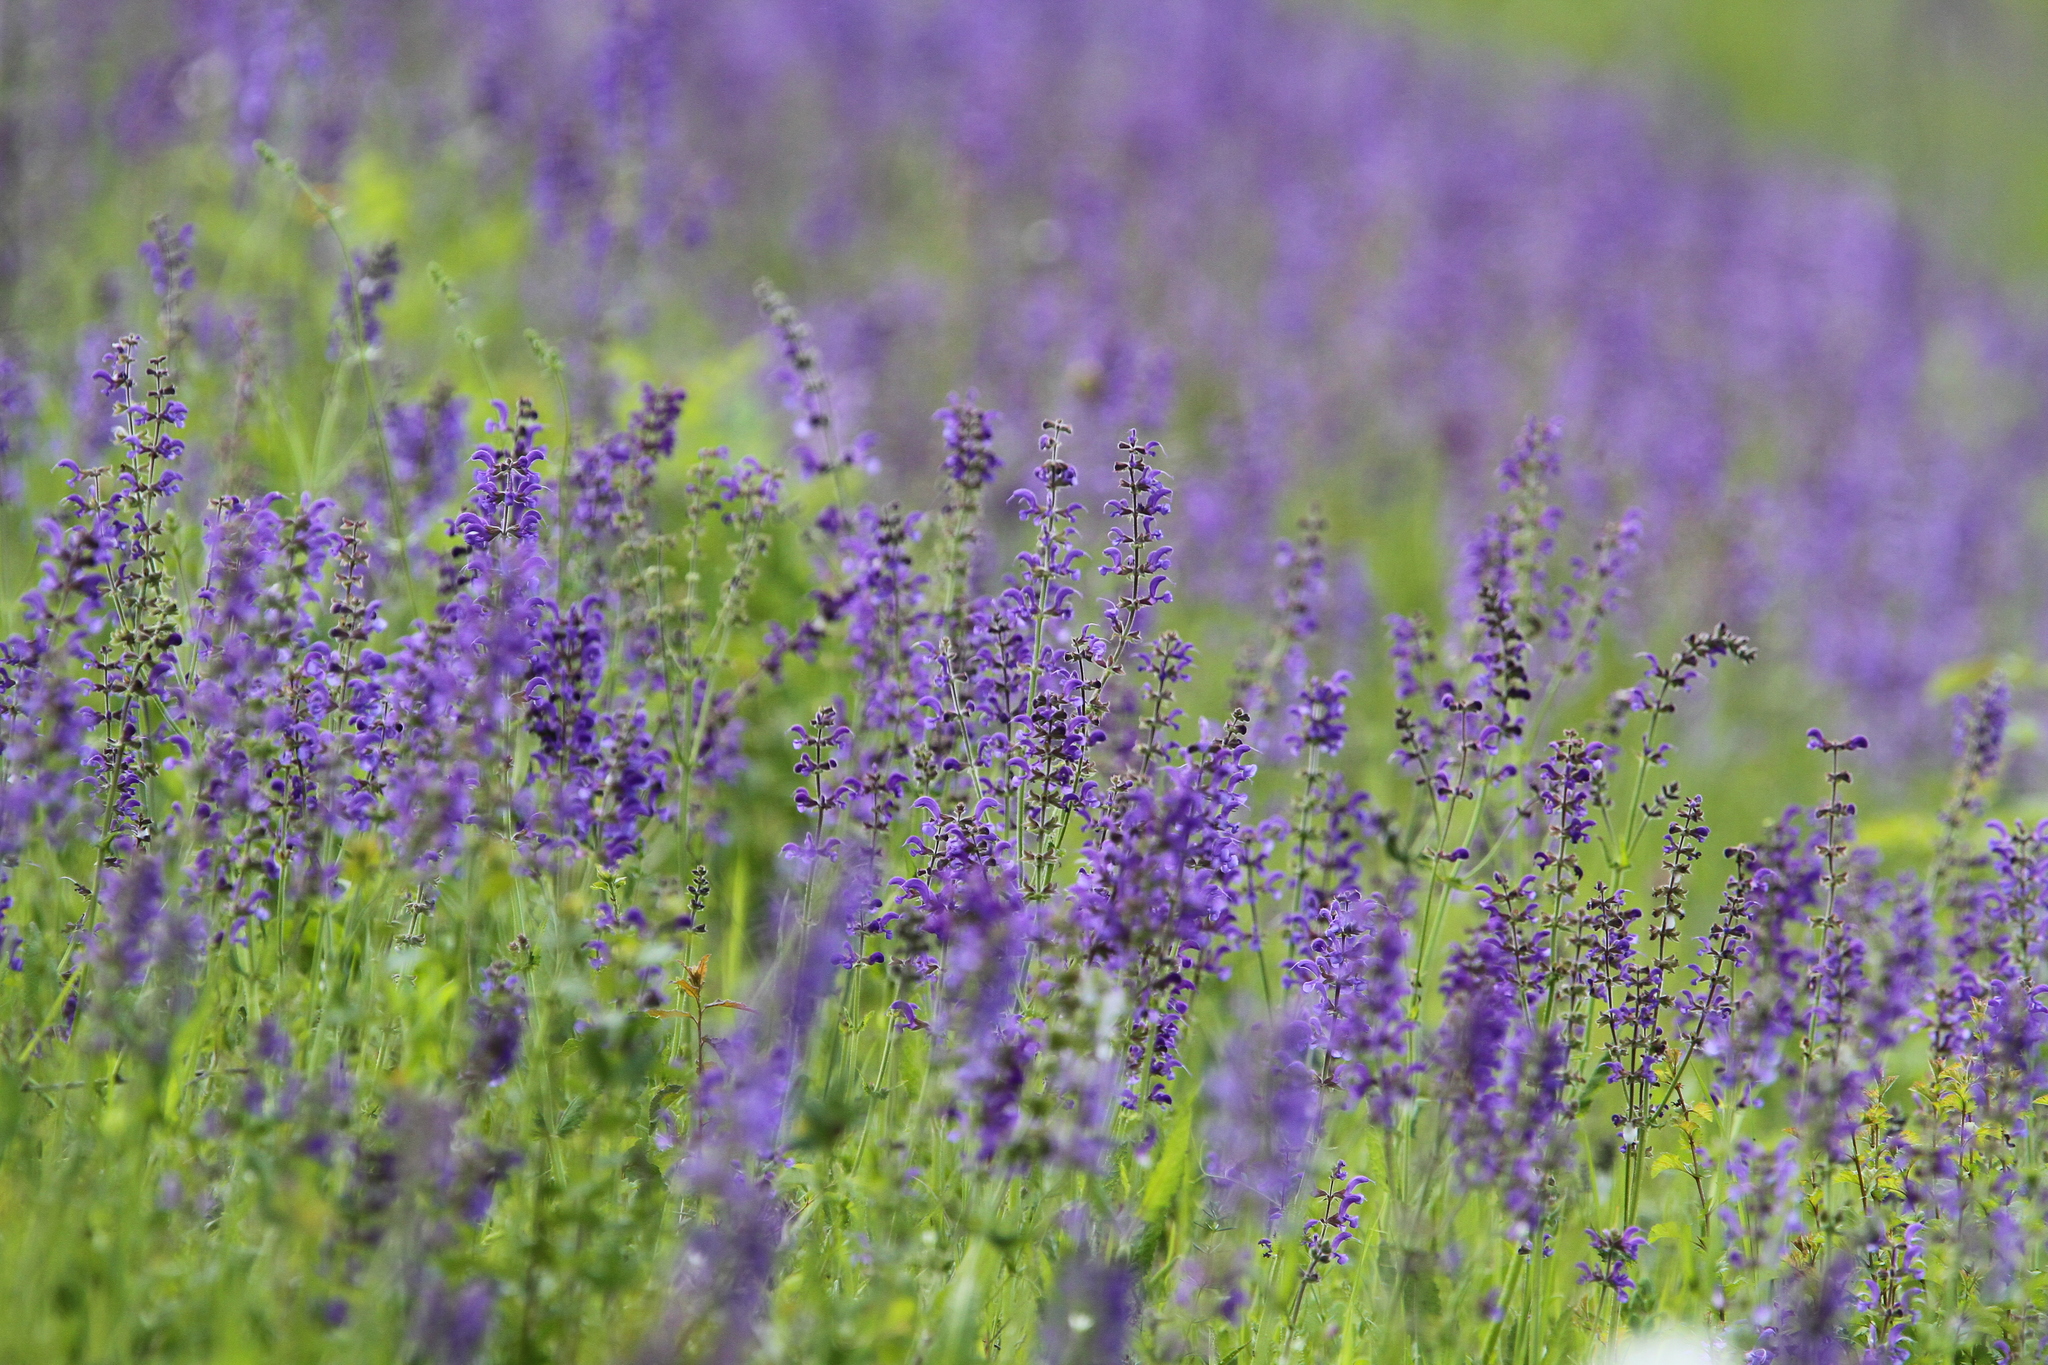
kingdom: Plantae
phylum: Tracheophyta
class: Magnoliopsida
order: Lamiales
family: Lamiaceae
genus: Salvia
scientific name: Salvia pratensis
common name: Meadow sage
